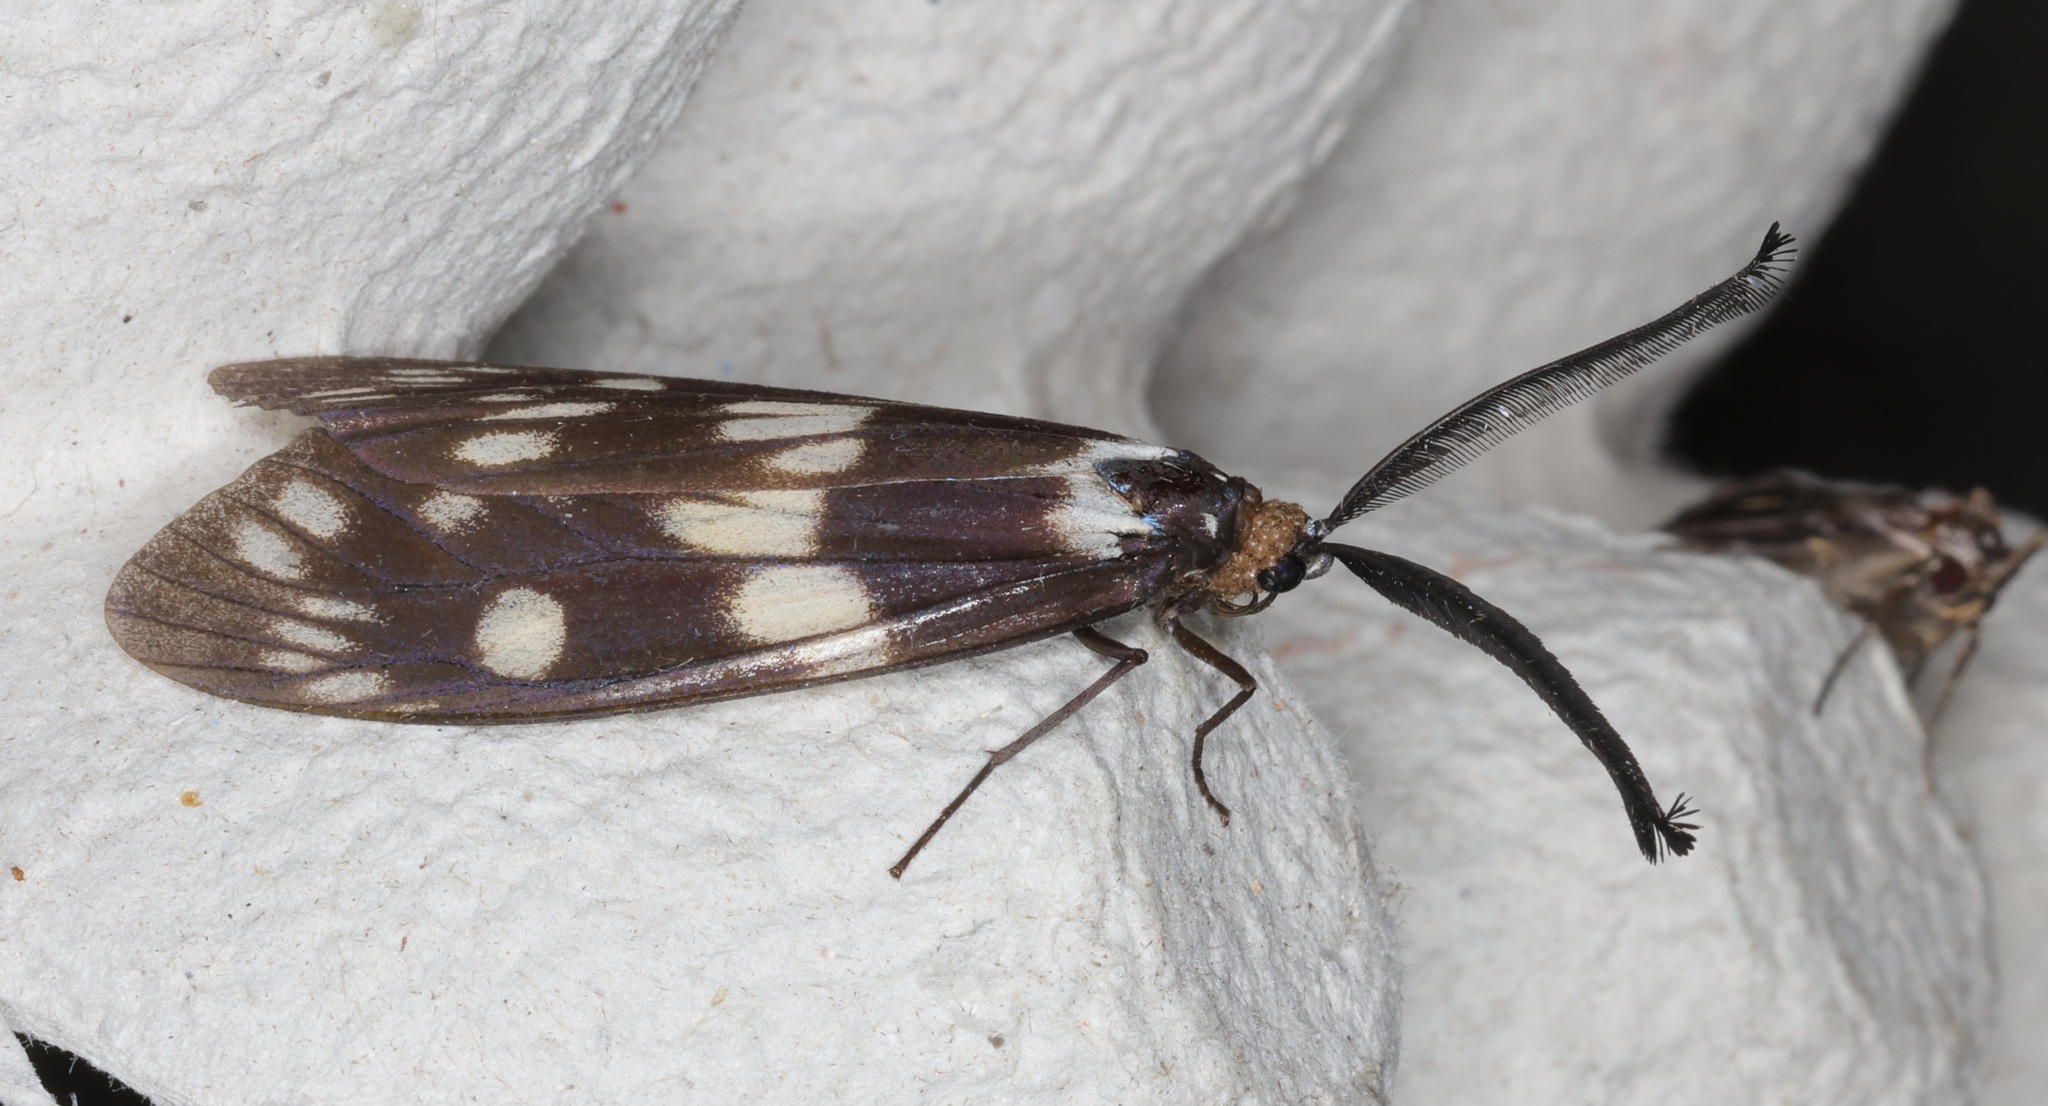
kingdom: Animalia
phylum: Arthropoda
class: Insecta
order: Lepidoptera
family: Zygaenidae
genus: Eterusia
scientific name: Eterusia aedea
